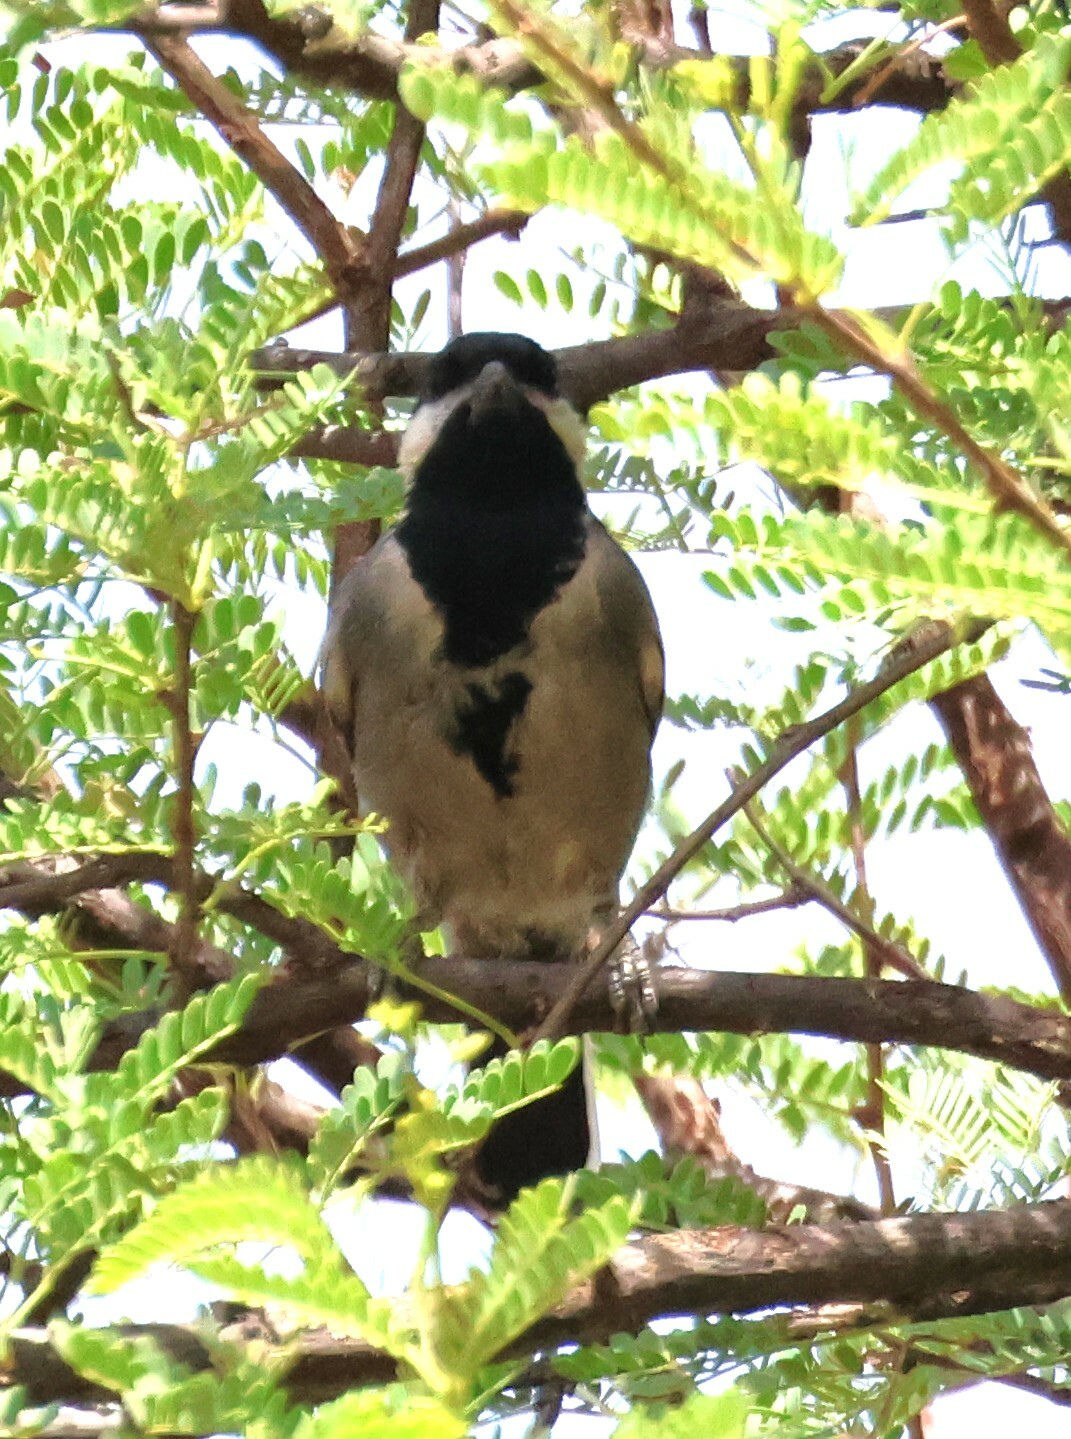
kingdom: Animalia
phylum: Chordata
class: Aves
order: Passeriformes
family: Paridae
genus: Parus
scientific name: Parus cinerascens
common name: Ashy tit
